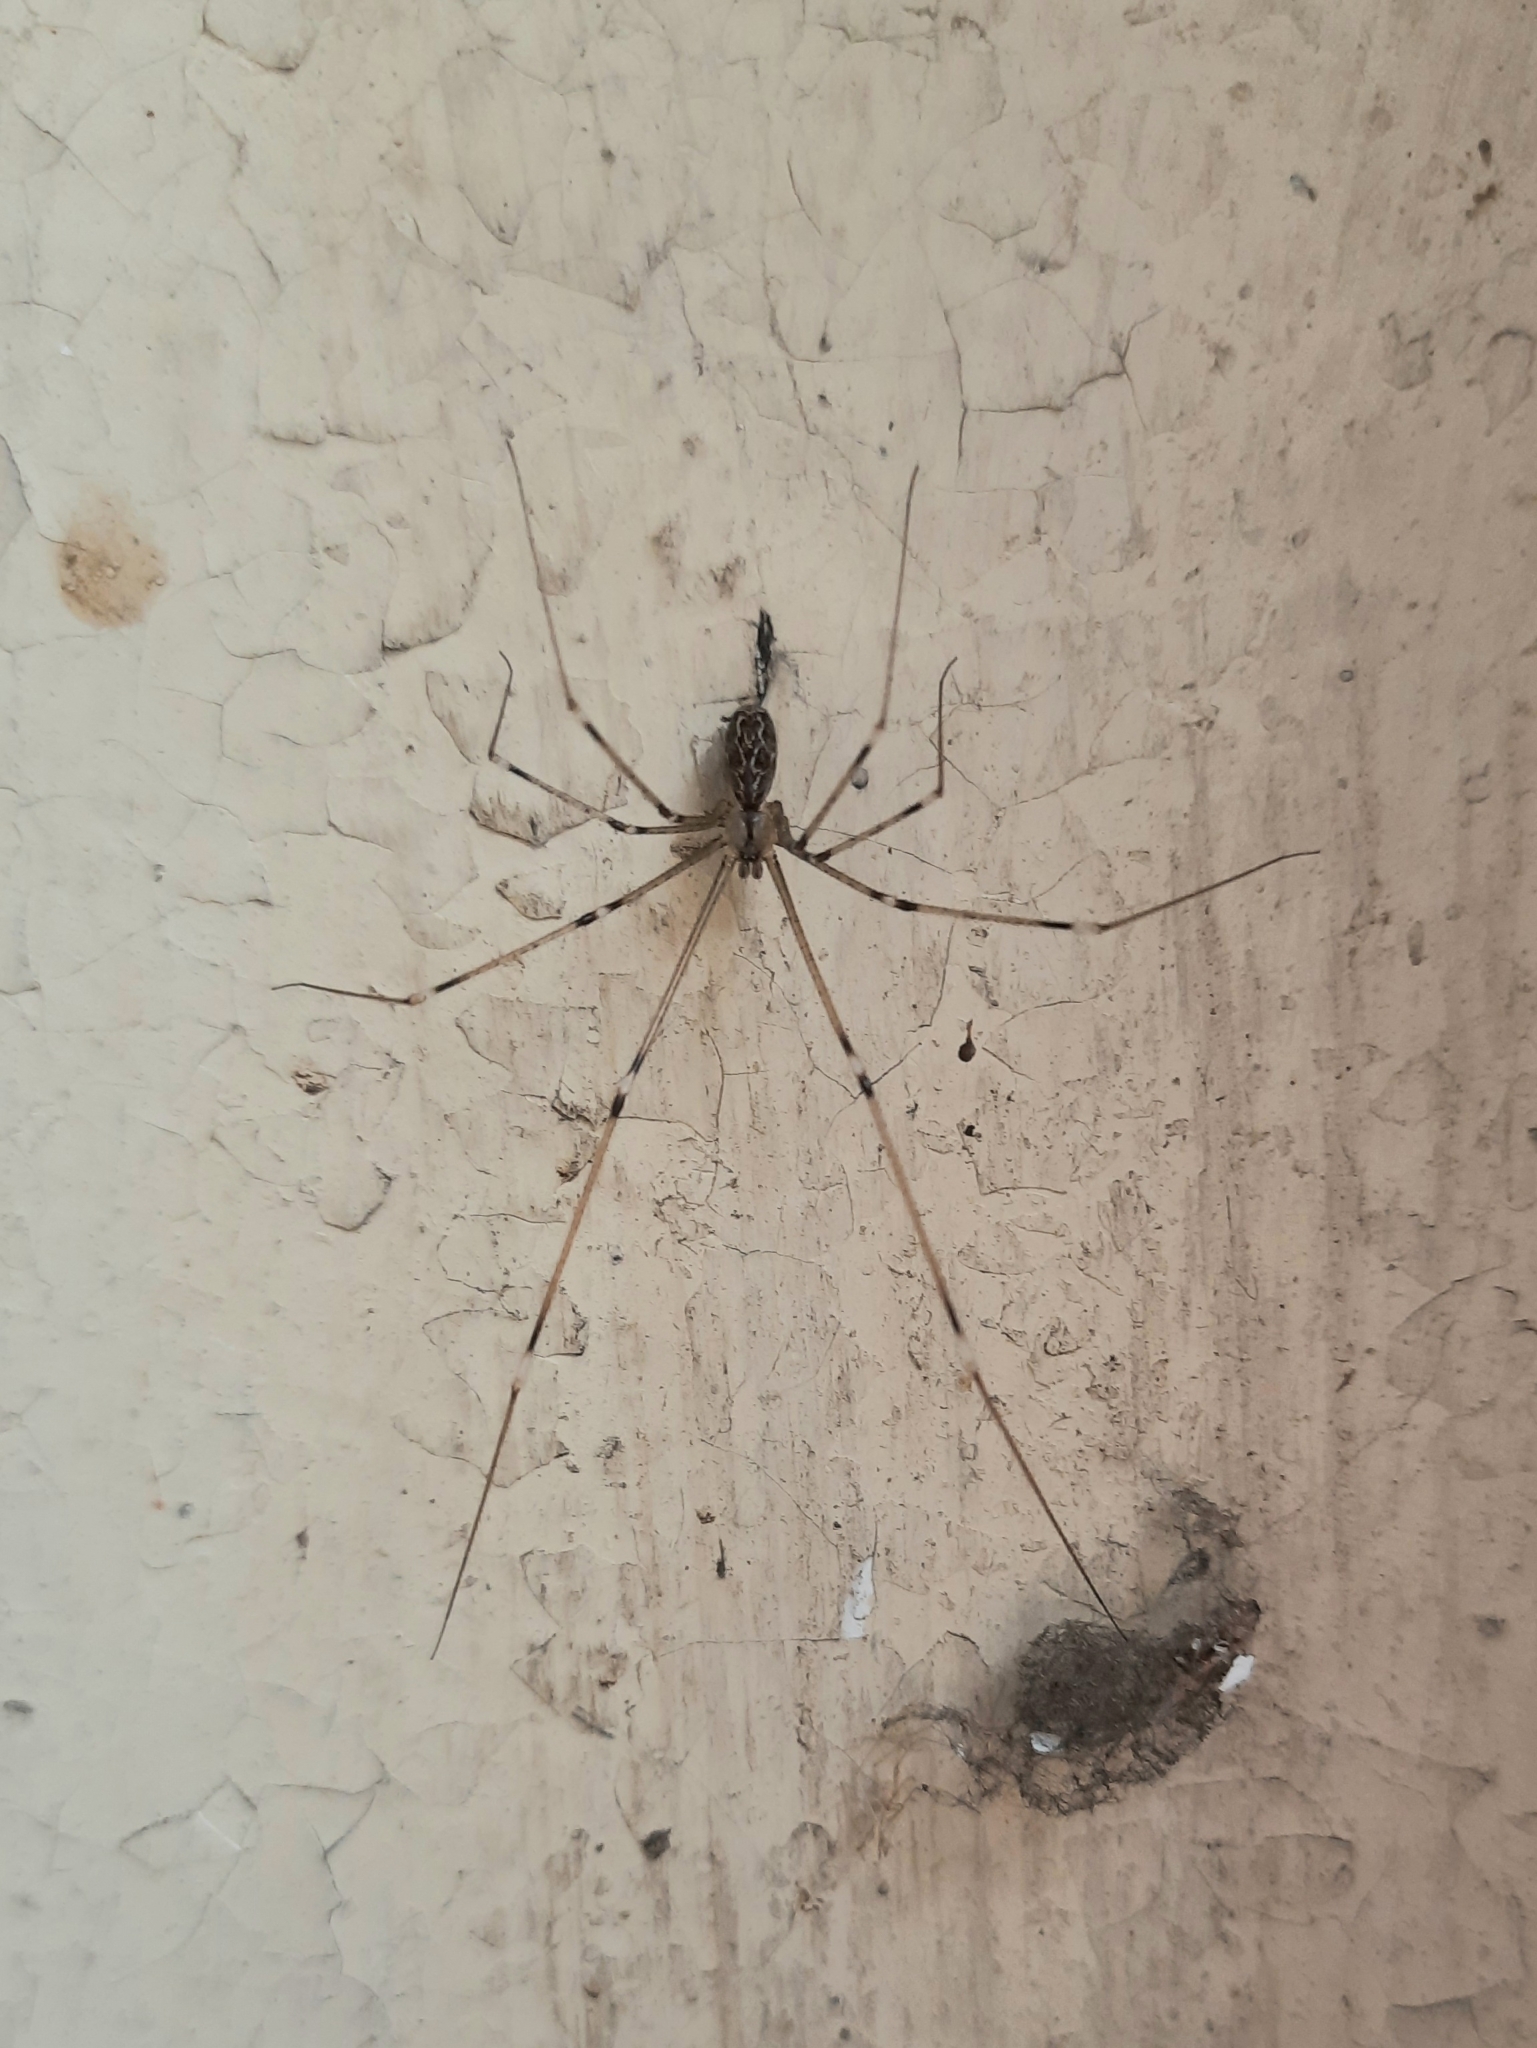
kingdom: Animalia
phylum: Arthropoda
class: Arachnida
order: Araneae
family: Pholcidae
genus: Holocnemus
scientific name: Holocnemus pluchei
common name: Marbled cellar spider
